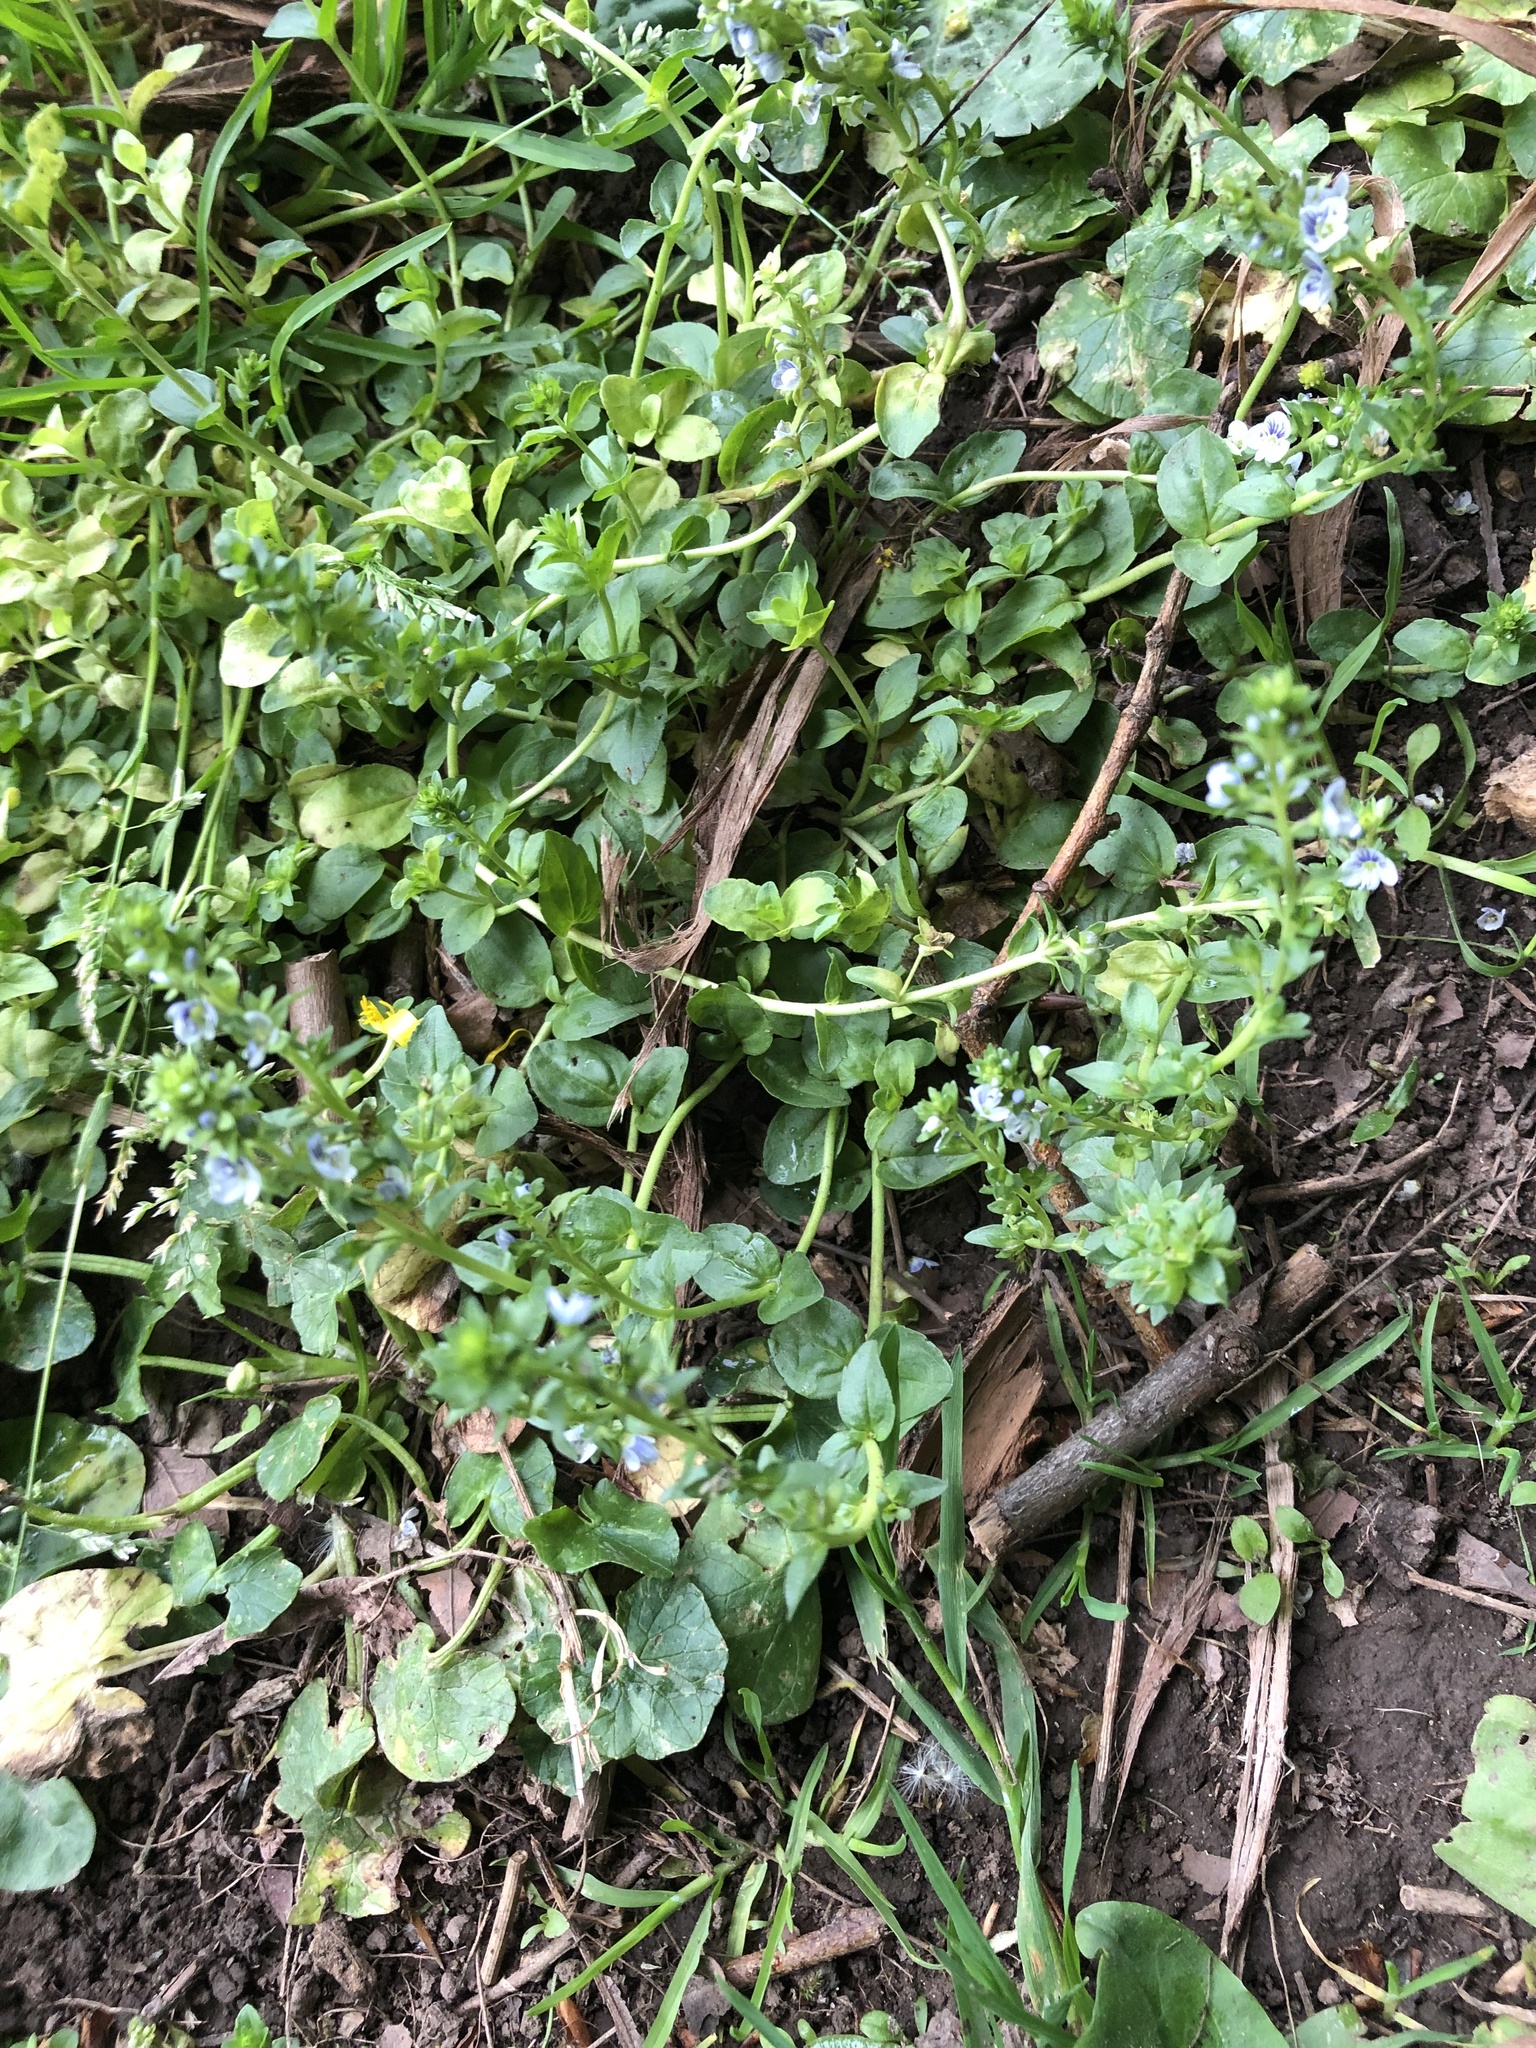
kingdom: Plantae
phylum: Tracheophyta
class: Magnoliopsida
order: Lamiales
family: Plantaginaceae
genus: Veronica
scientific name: Veronica serpyllifolia
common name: Thyme-leaved speedwell
